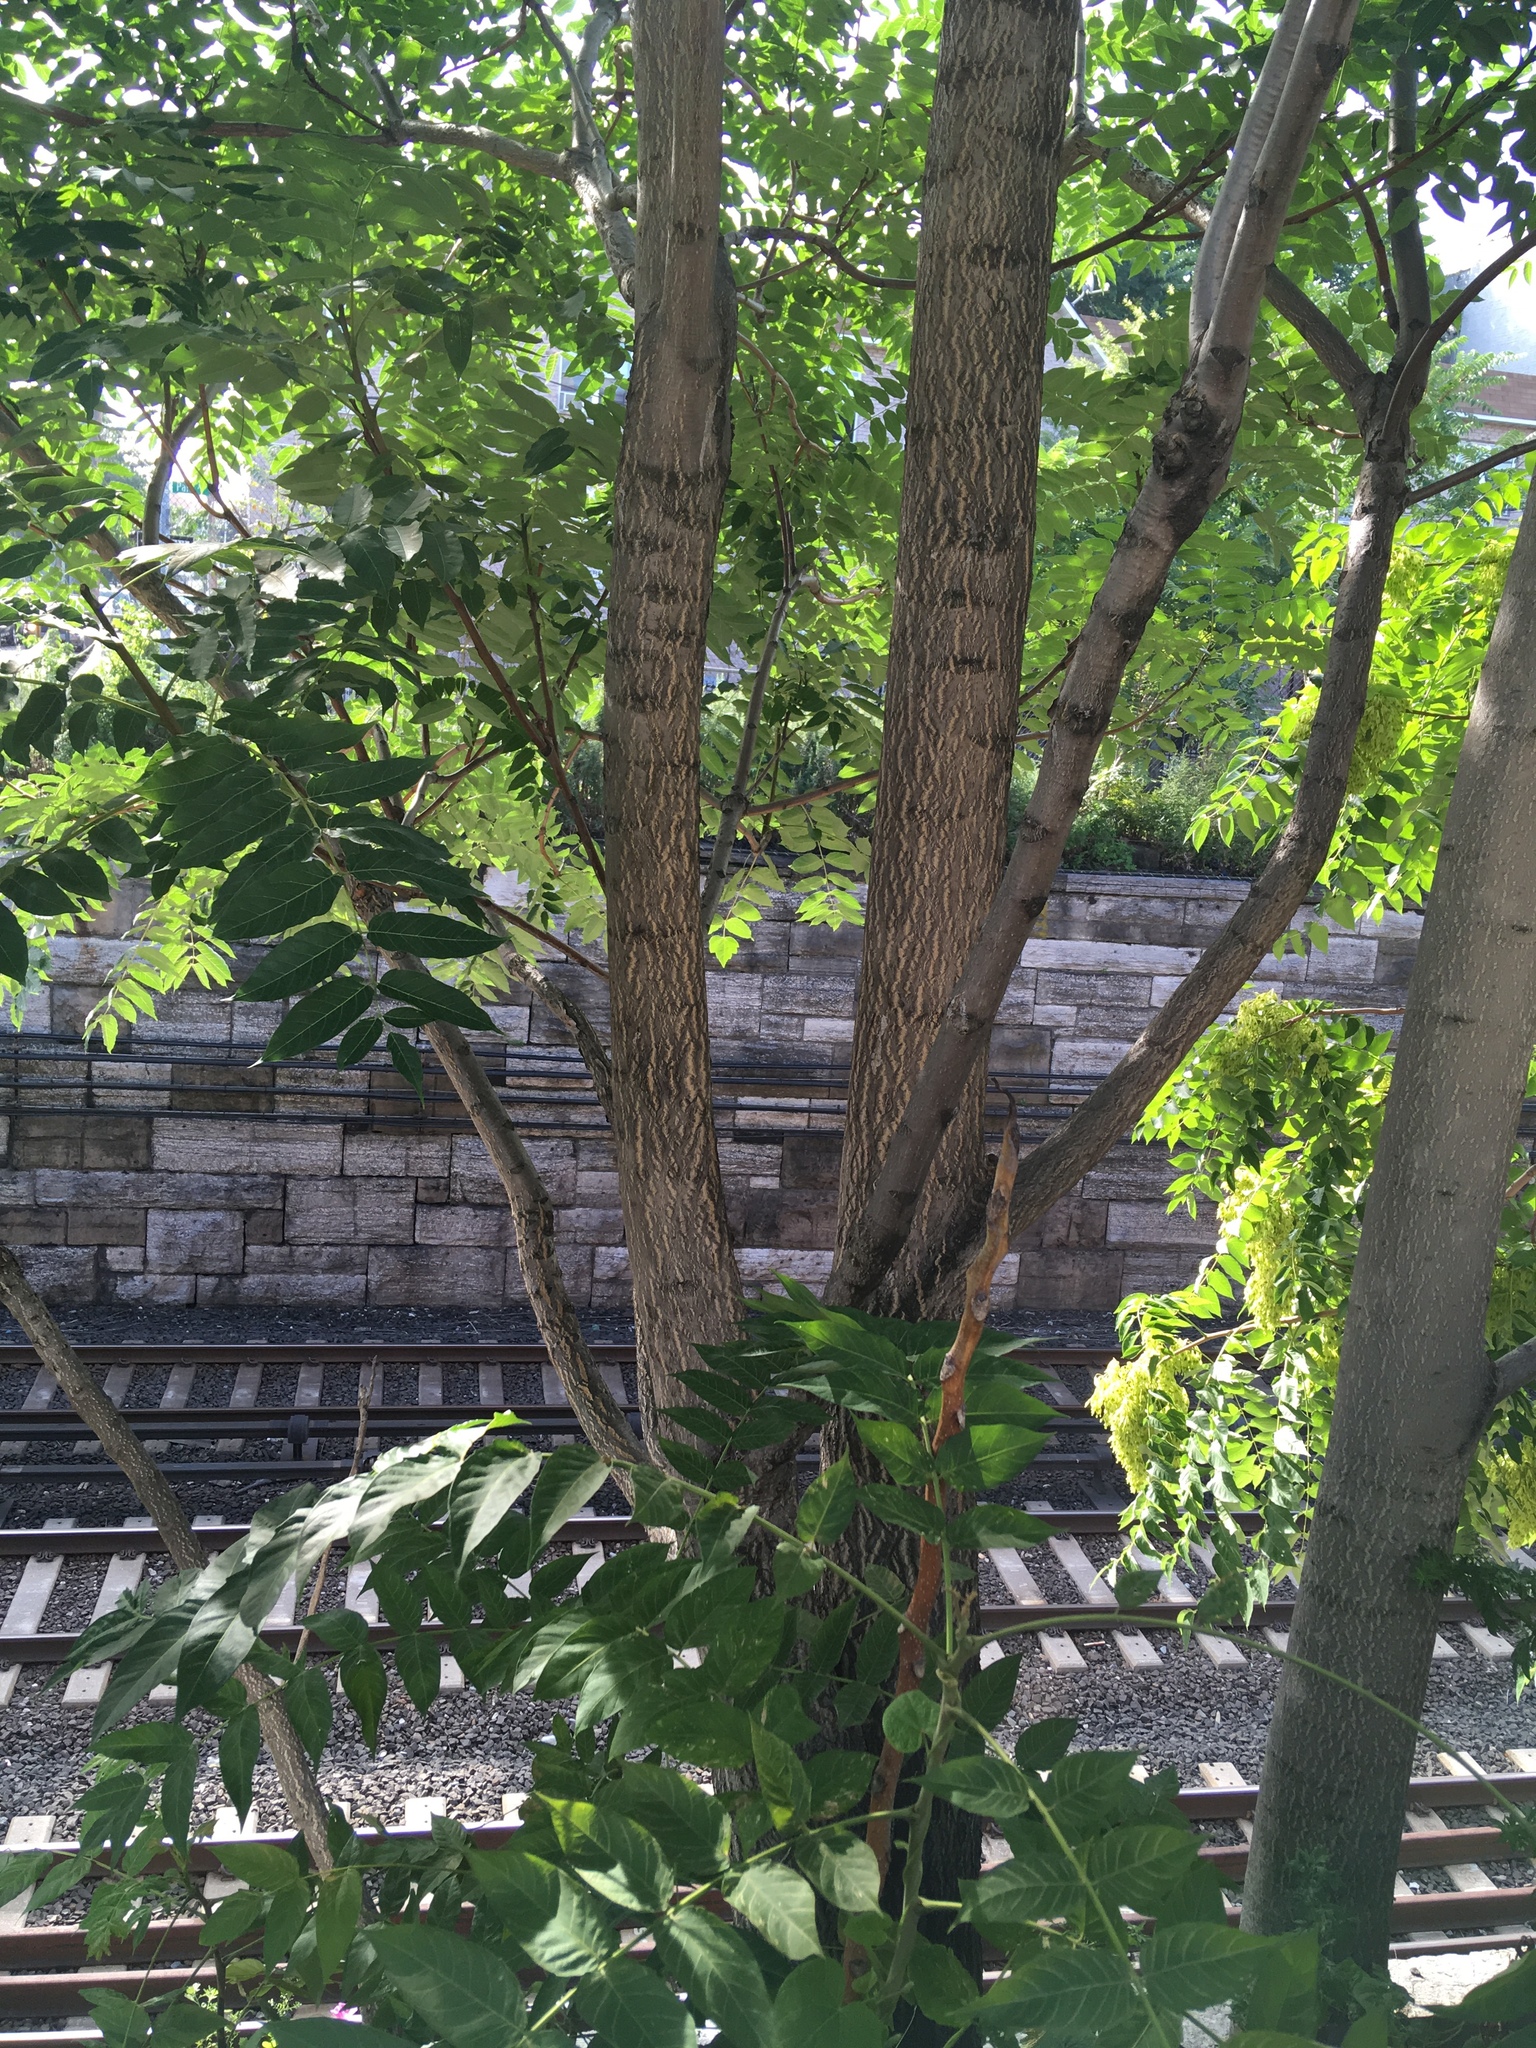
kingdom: Plantae
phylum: Tracheophyta
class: Magnoliopsida
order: Sapindales
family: Simaroubaceae
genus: Ailanthus
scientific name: Ailanthus altissima
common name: Tree-of-heaven
